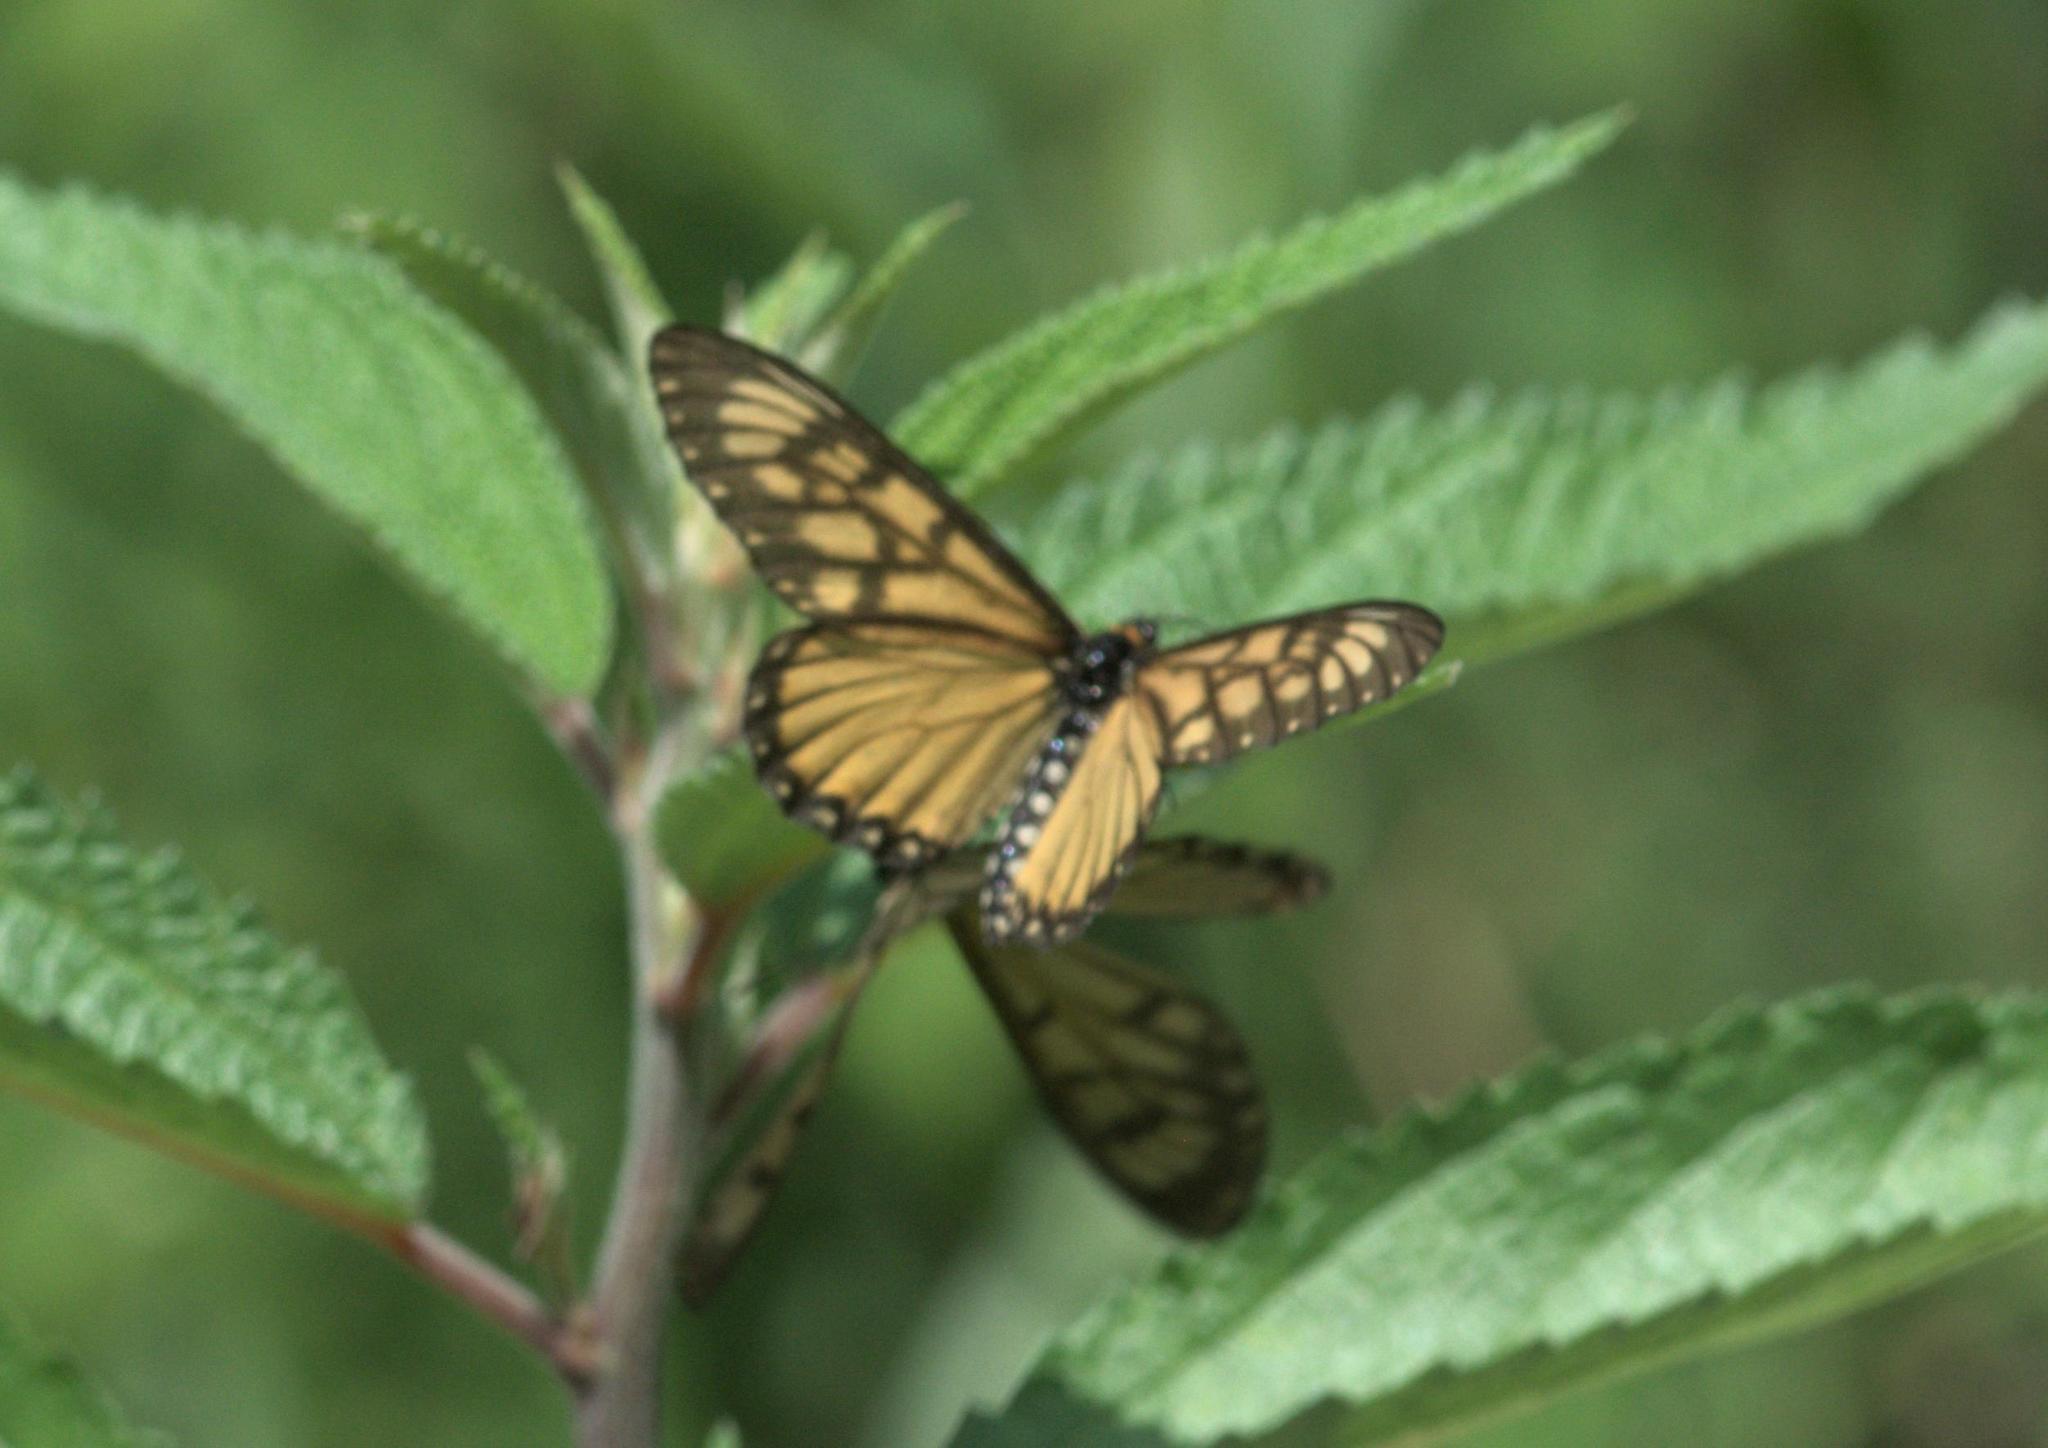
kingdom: Animalia
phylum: Arthropoda
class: Insecta
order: Lepidoptera
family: Nymphalidae
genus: Acraea
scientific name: Acraea Telchinia issoria
